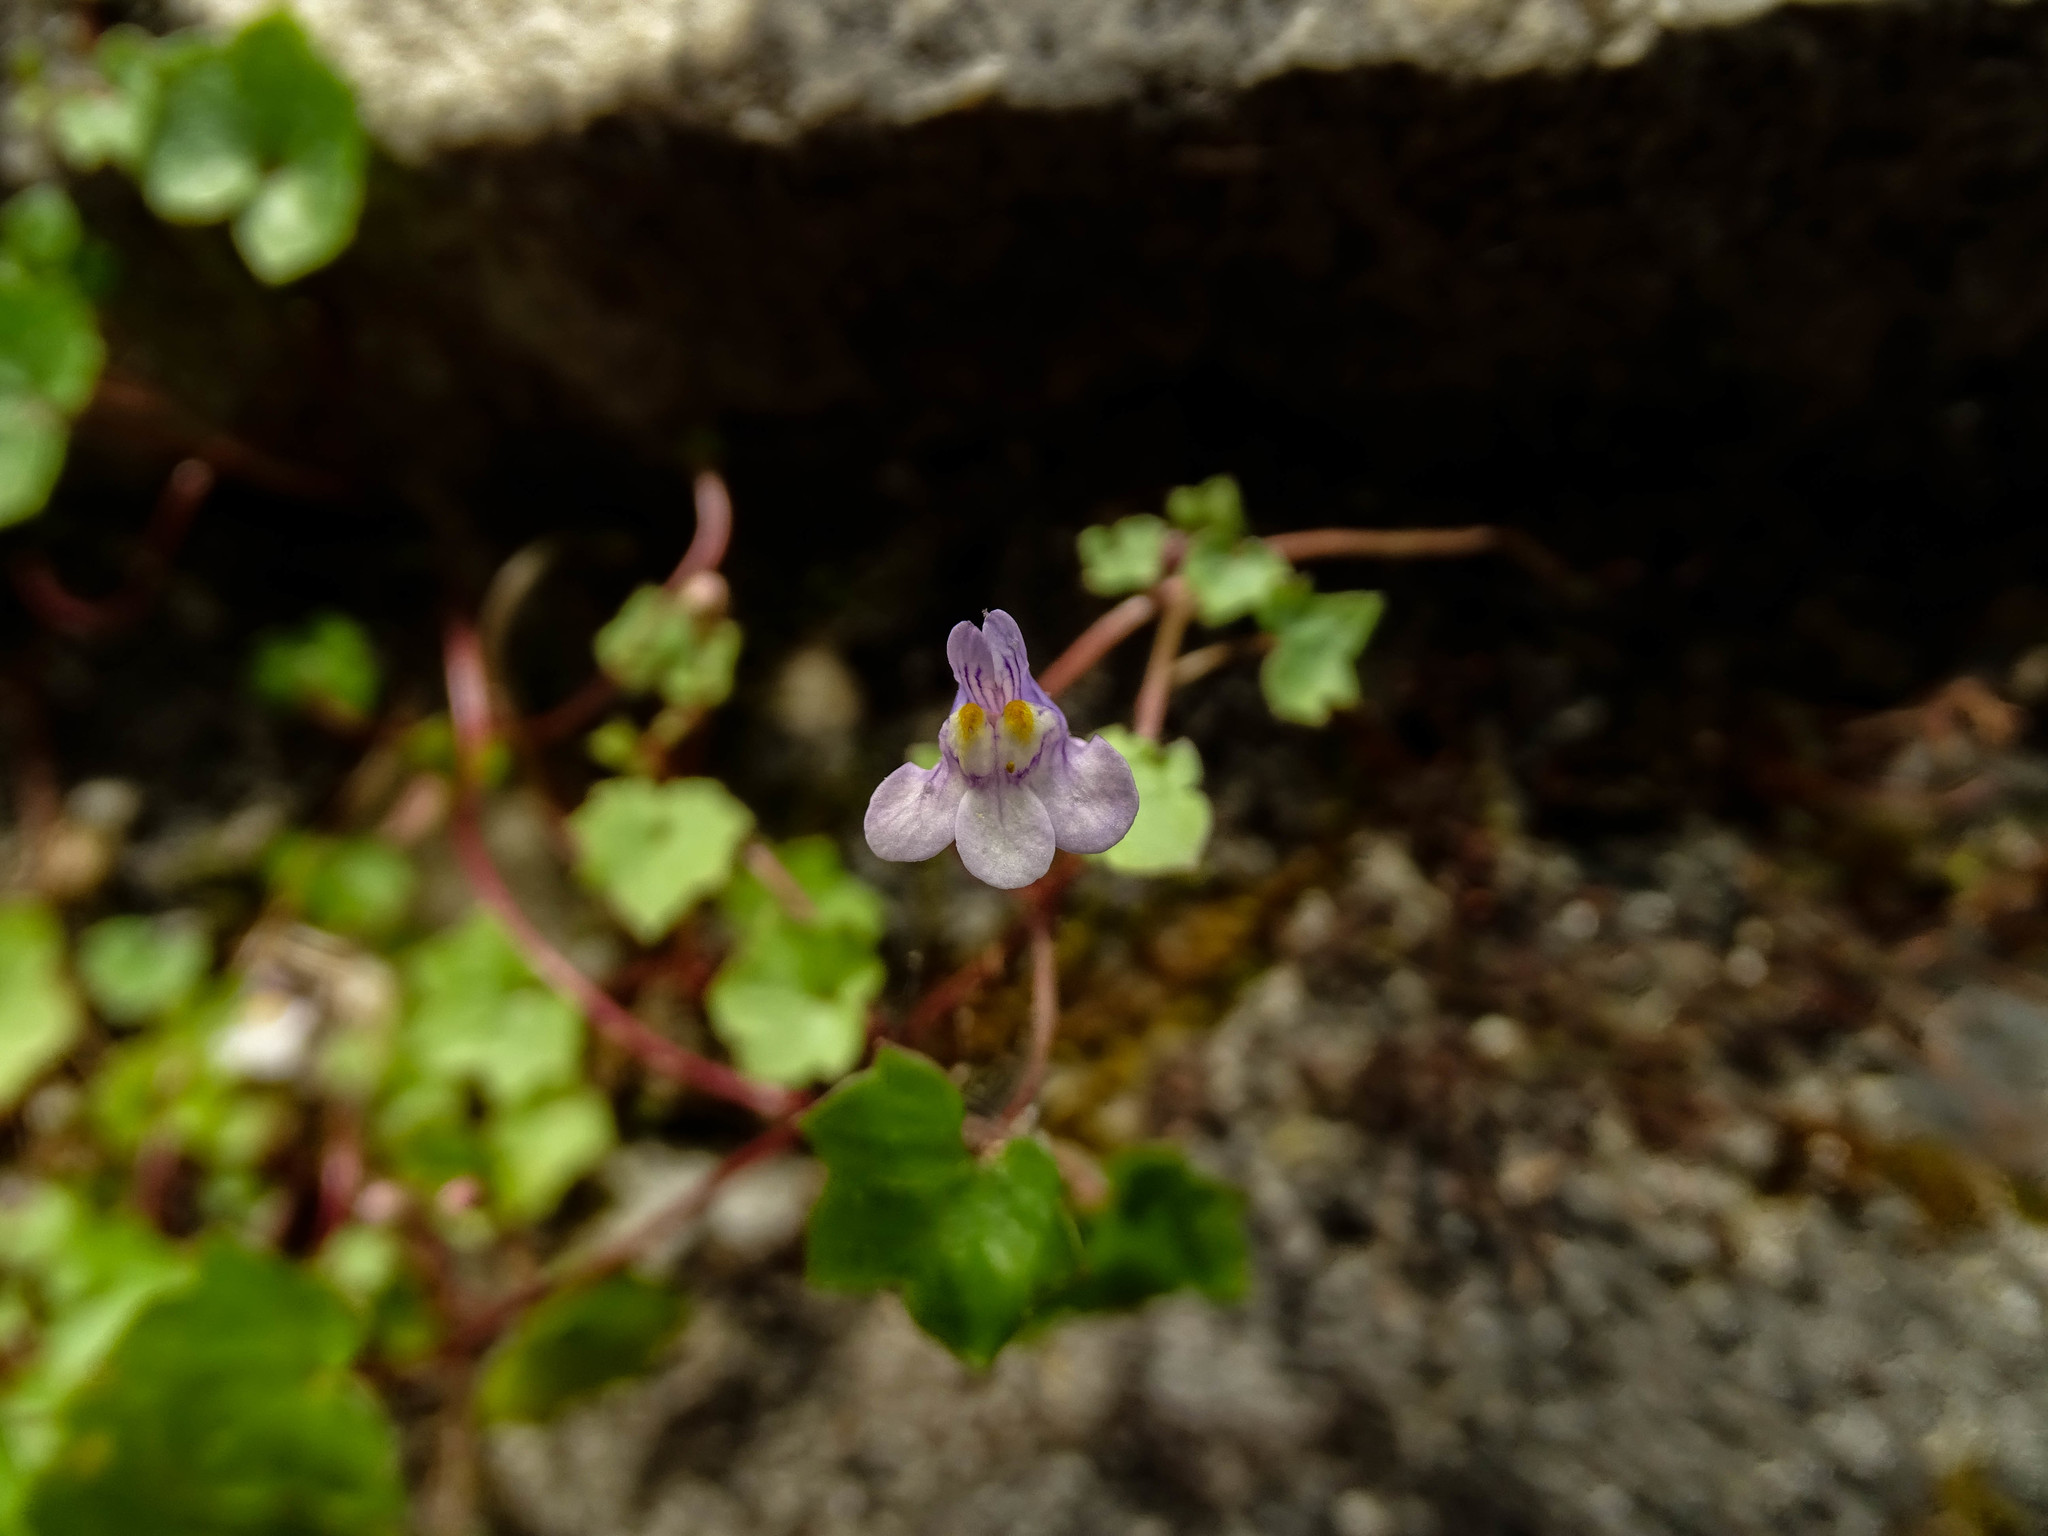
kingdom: Plantae
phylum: Tracheophyta
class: Magnoliopsida
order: Lamiales
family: Plantaginaceae
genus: Cymbalaria
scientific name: Cymbalaria muralis
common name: Ivy-leaved toadflax
